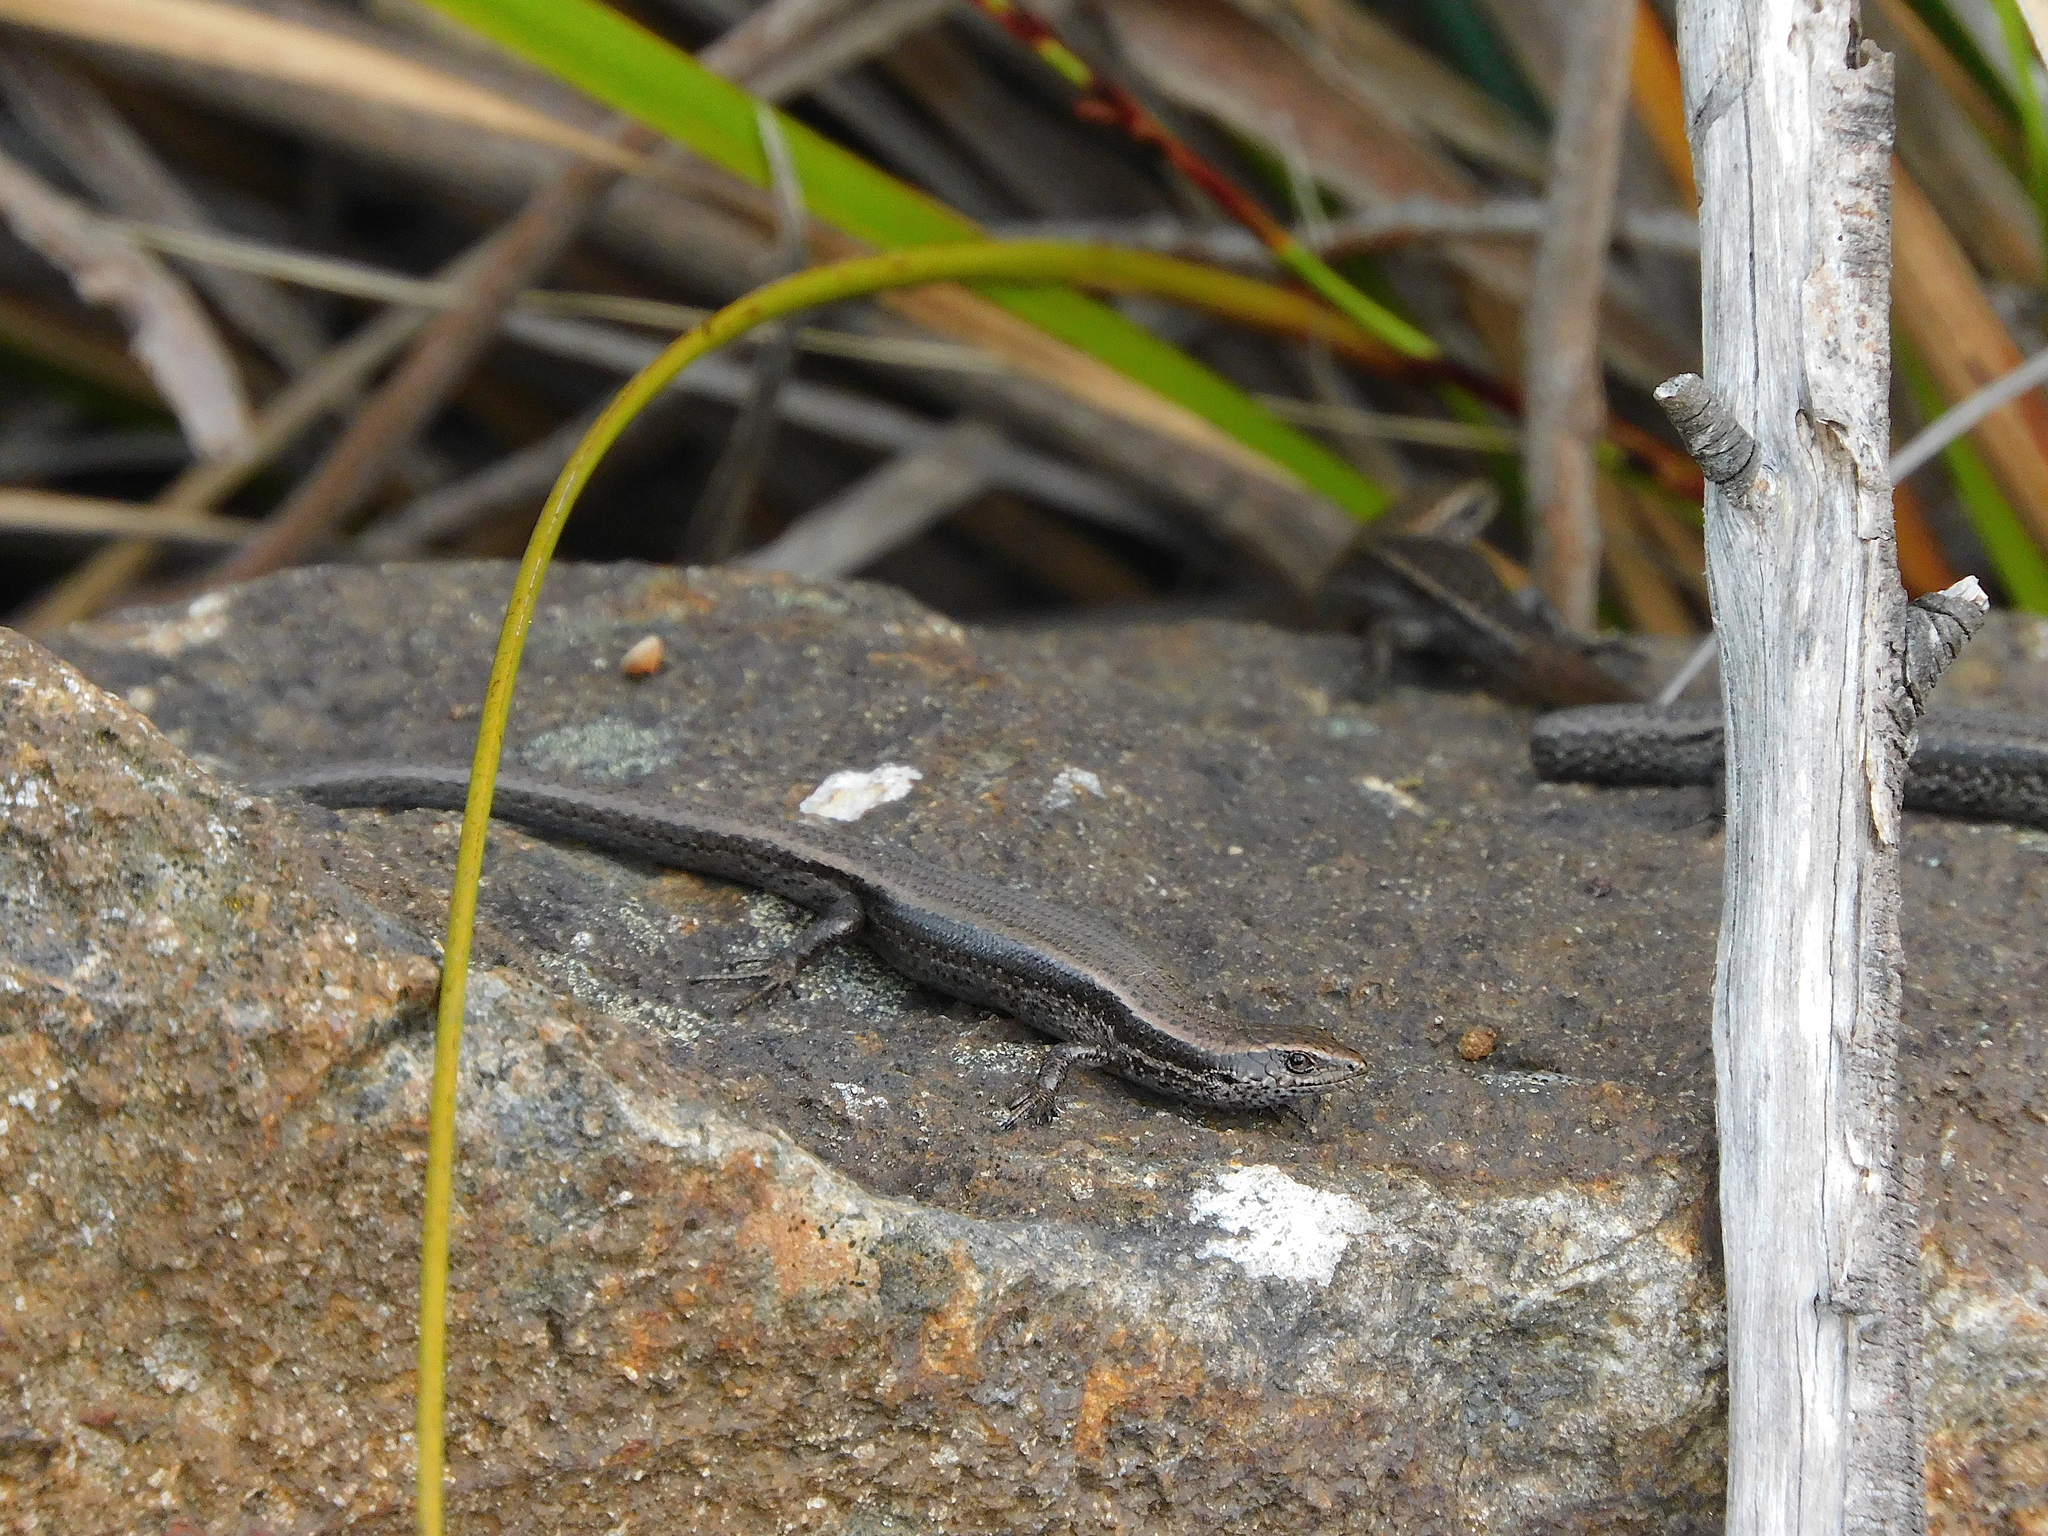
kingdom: Animalia
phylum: Chordata
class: Squamata
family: Scincidae
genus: Carinascincus
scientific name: Carinascincus metallicus
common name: Metallic cool-skink
